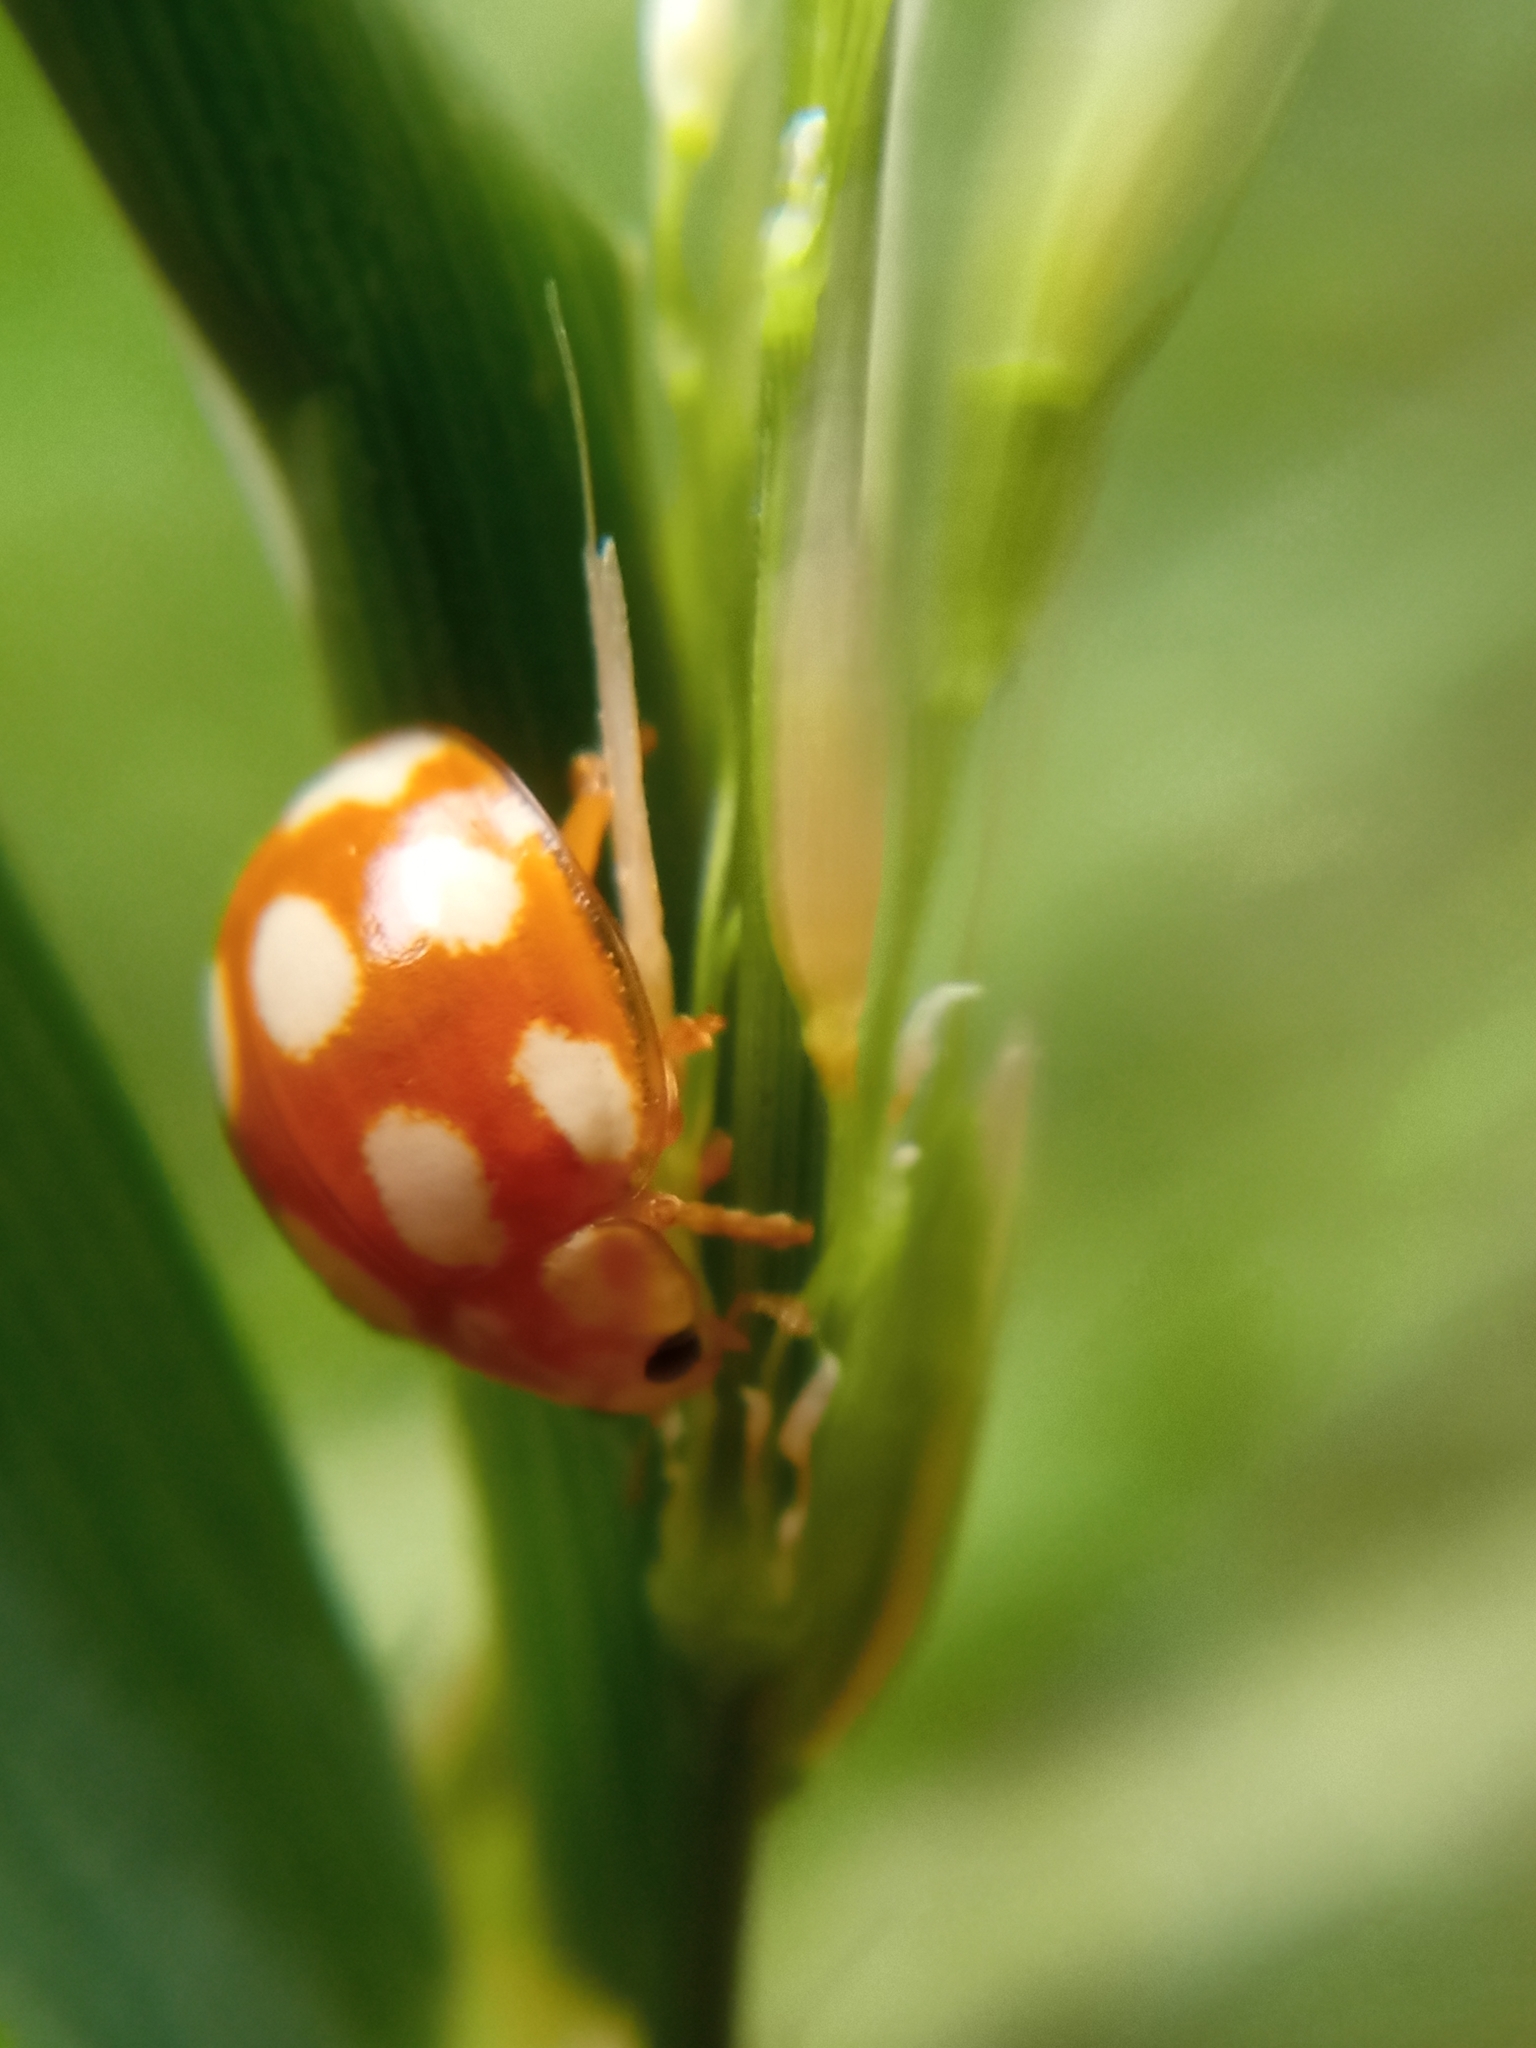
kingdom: Animalia
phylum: Arthropoda
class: Insecta
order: Coleoptera
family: Coccinellidae
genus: Calvia
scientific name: Calvia decemguttata
